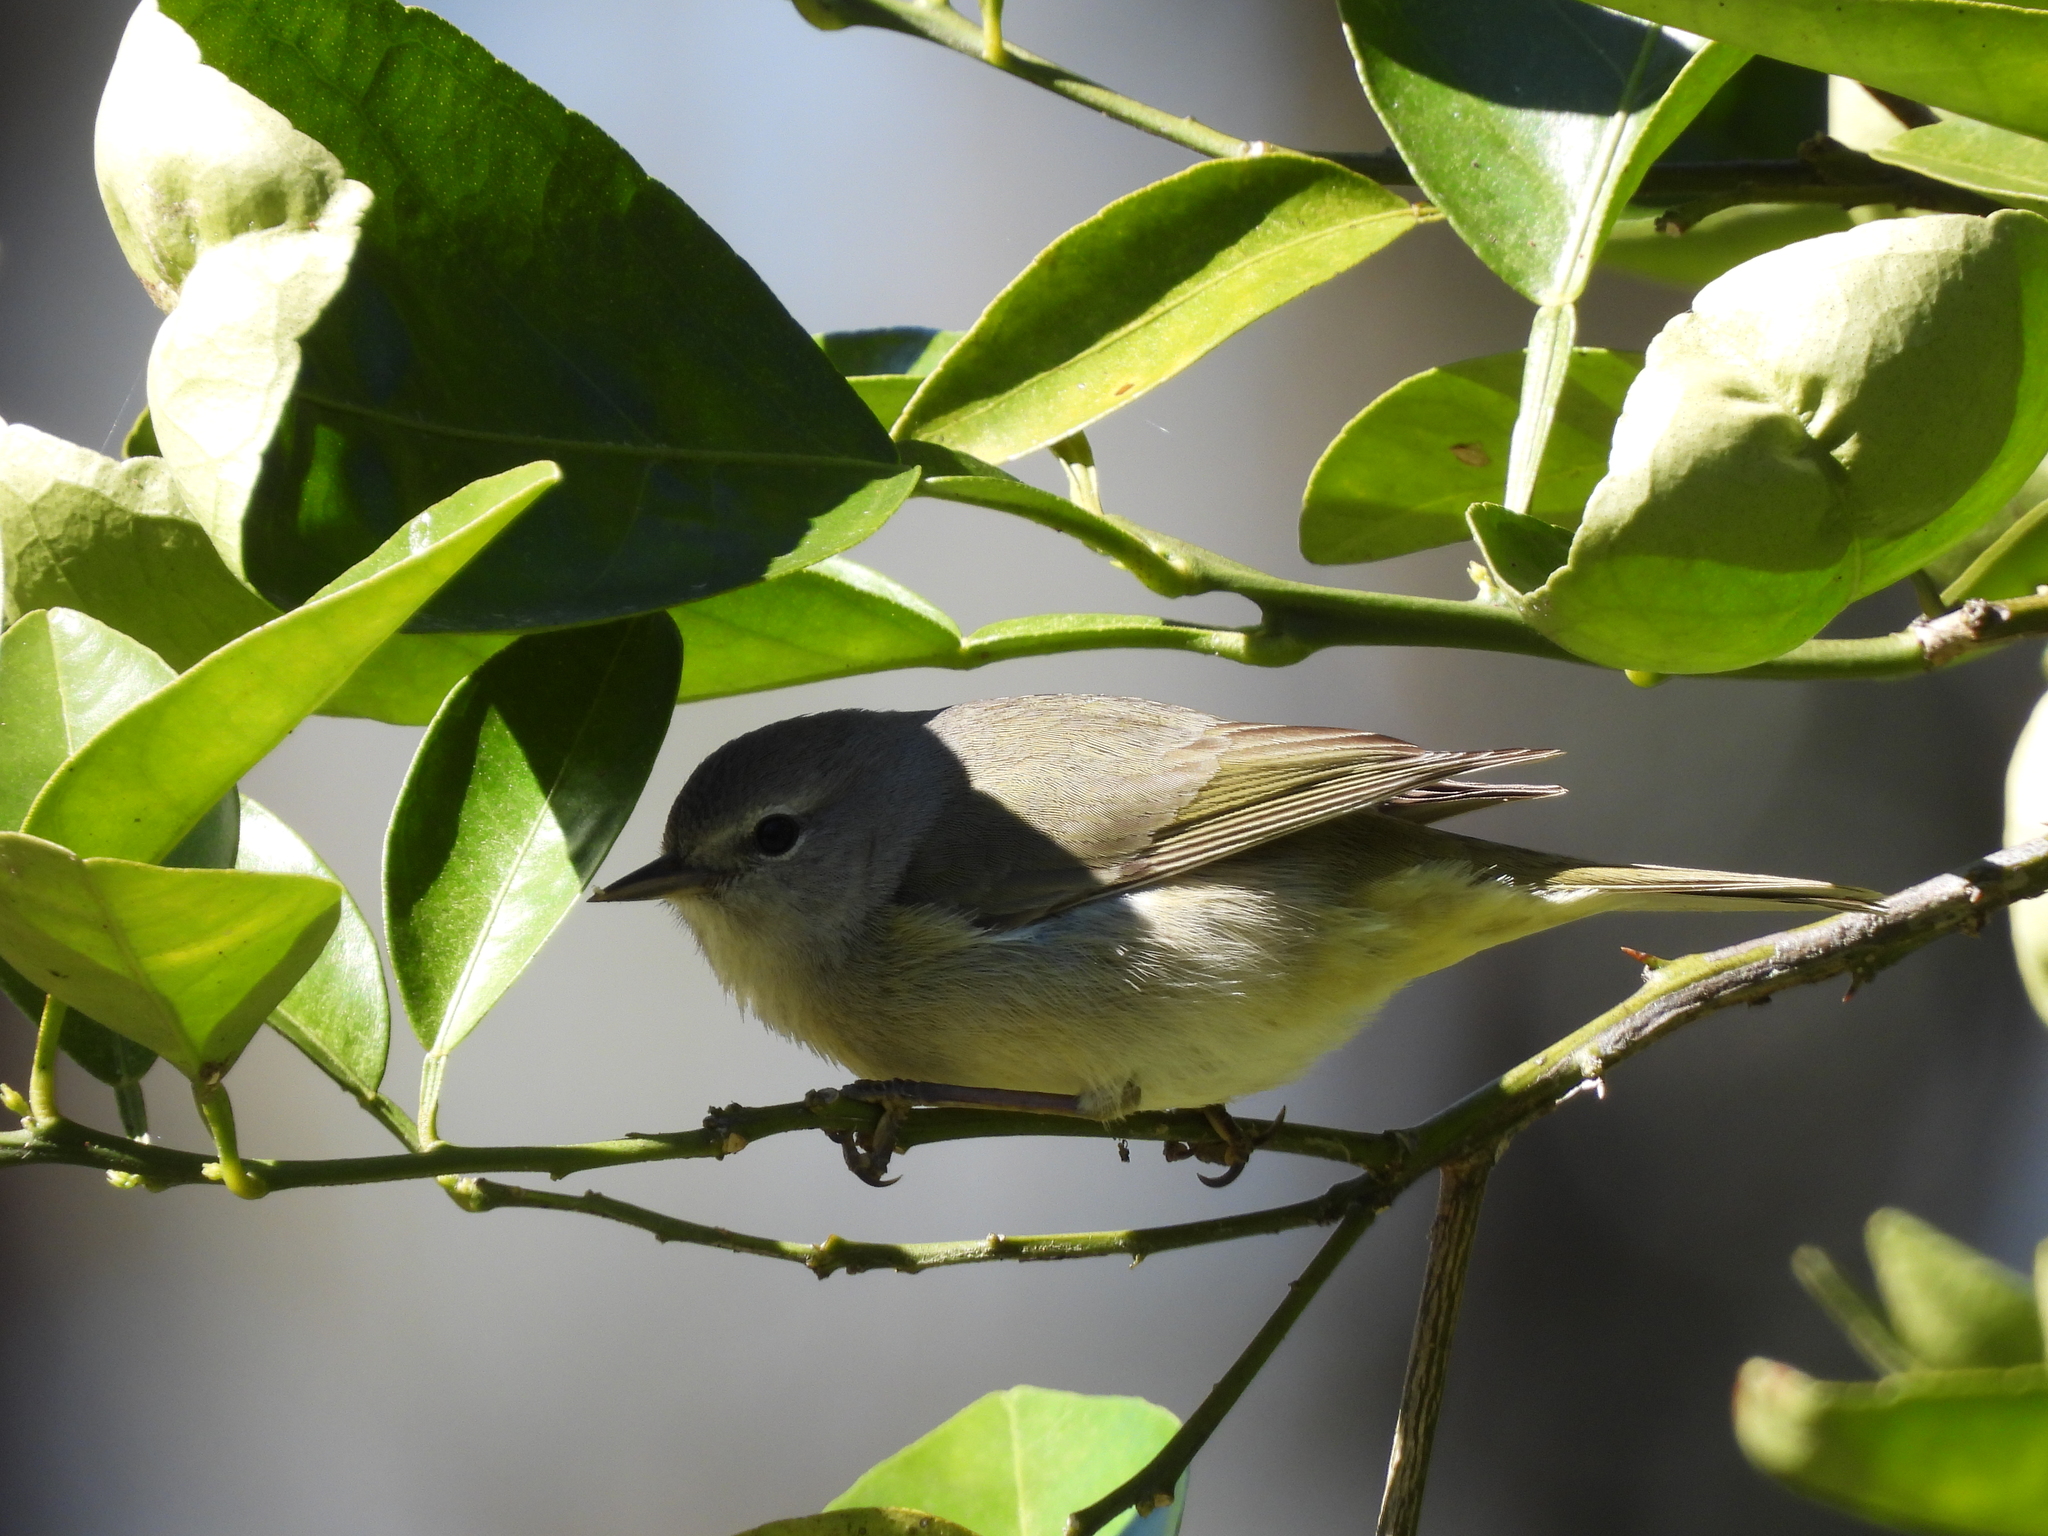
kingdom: Animalia
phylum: Chordata
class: Aves
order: Passeriformes
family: Parulidae
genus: Leiothlypis
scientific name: Leiothlypis celata
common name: Orange-crowned warbler
